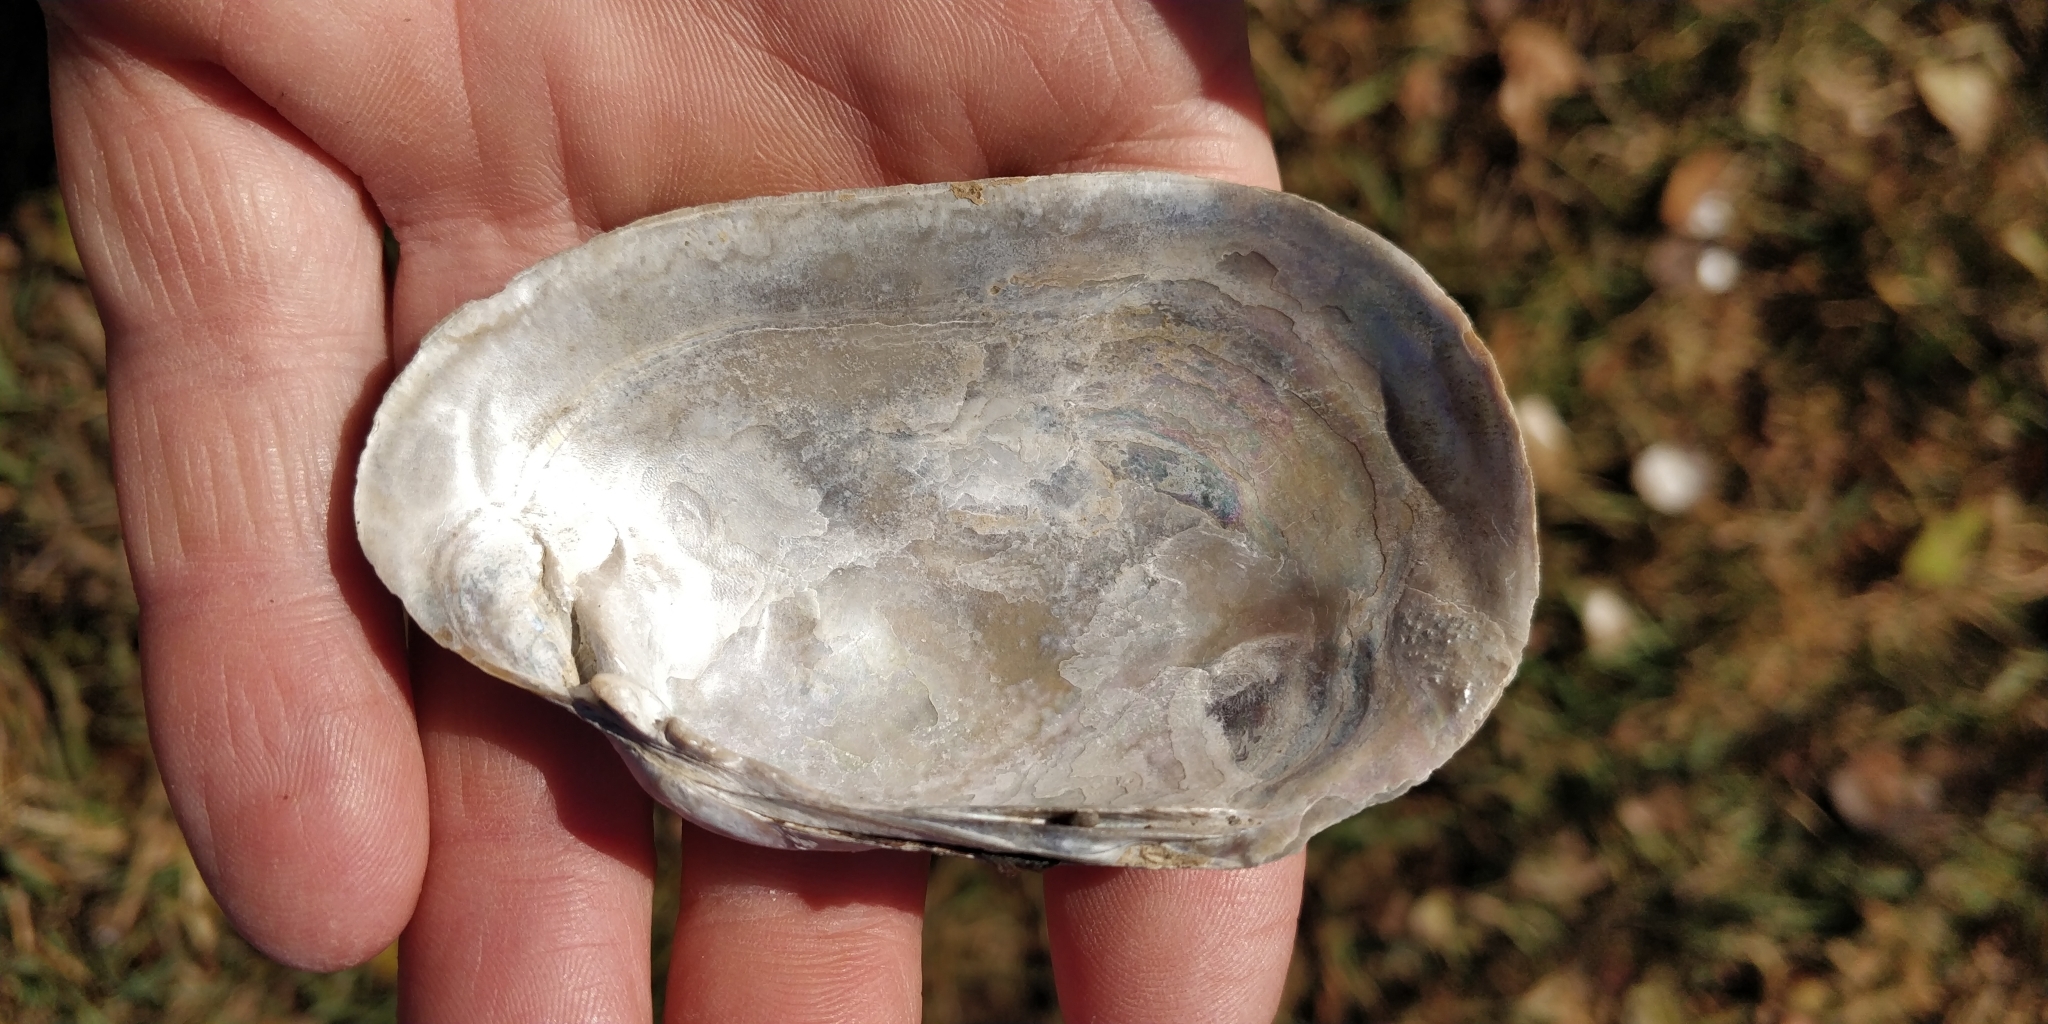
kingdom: Animalia
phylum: Mollusca
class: Bivalvia
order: Unionida
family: Unionidae
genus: Lampsilis
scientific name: Lampsilis siliquoidea
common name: Fatmucket
